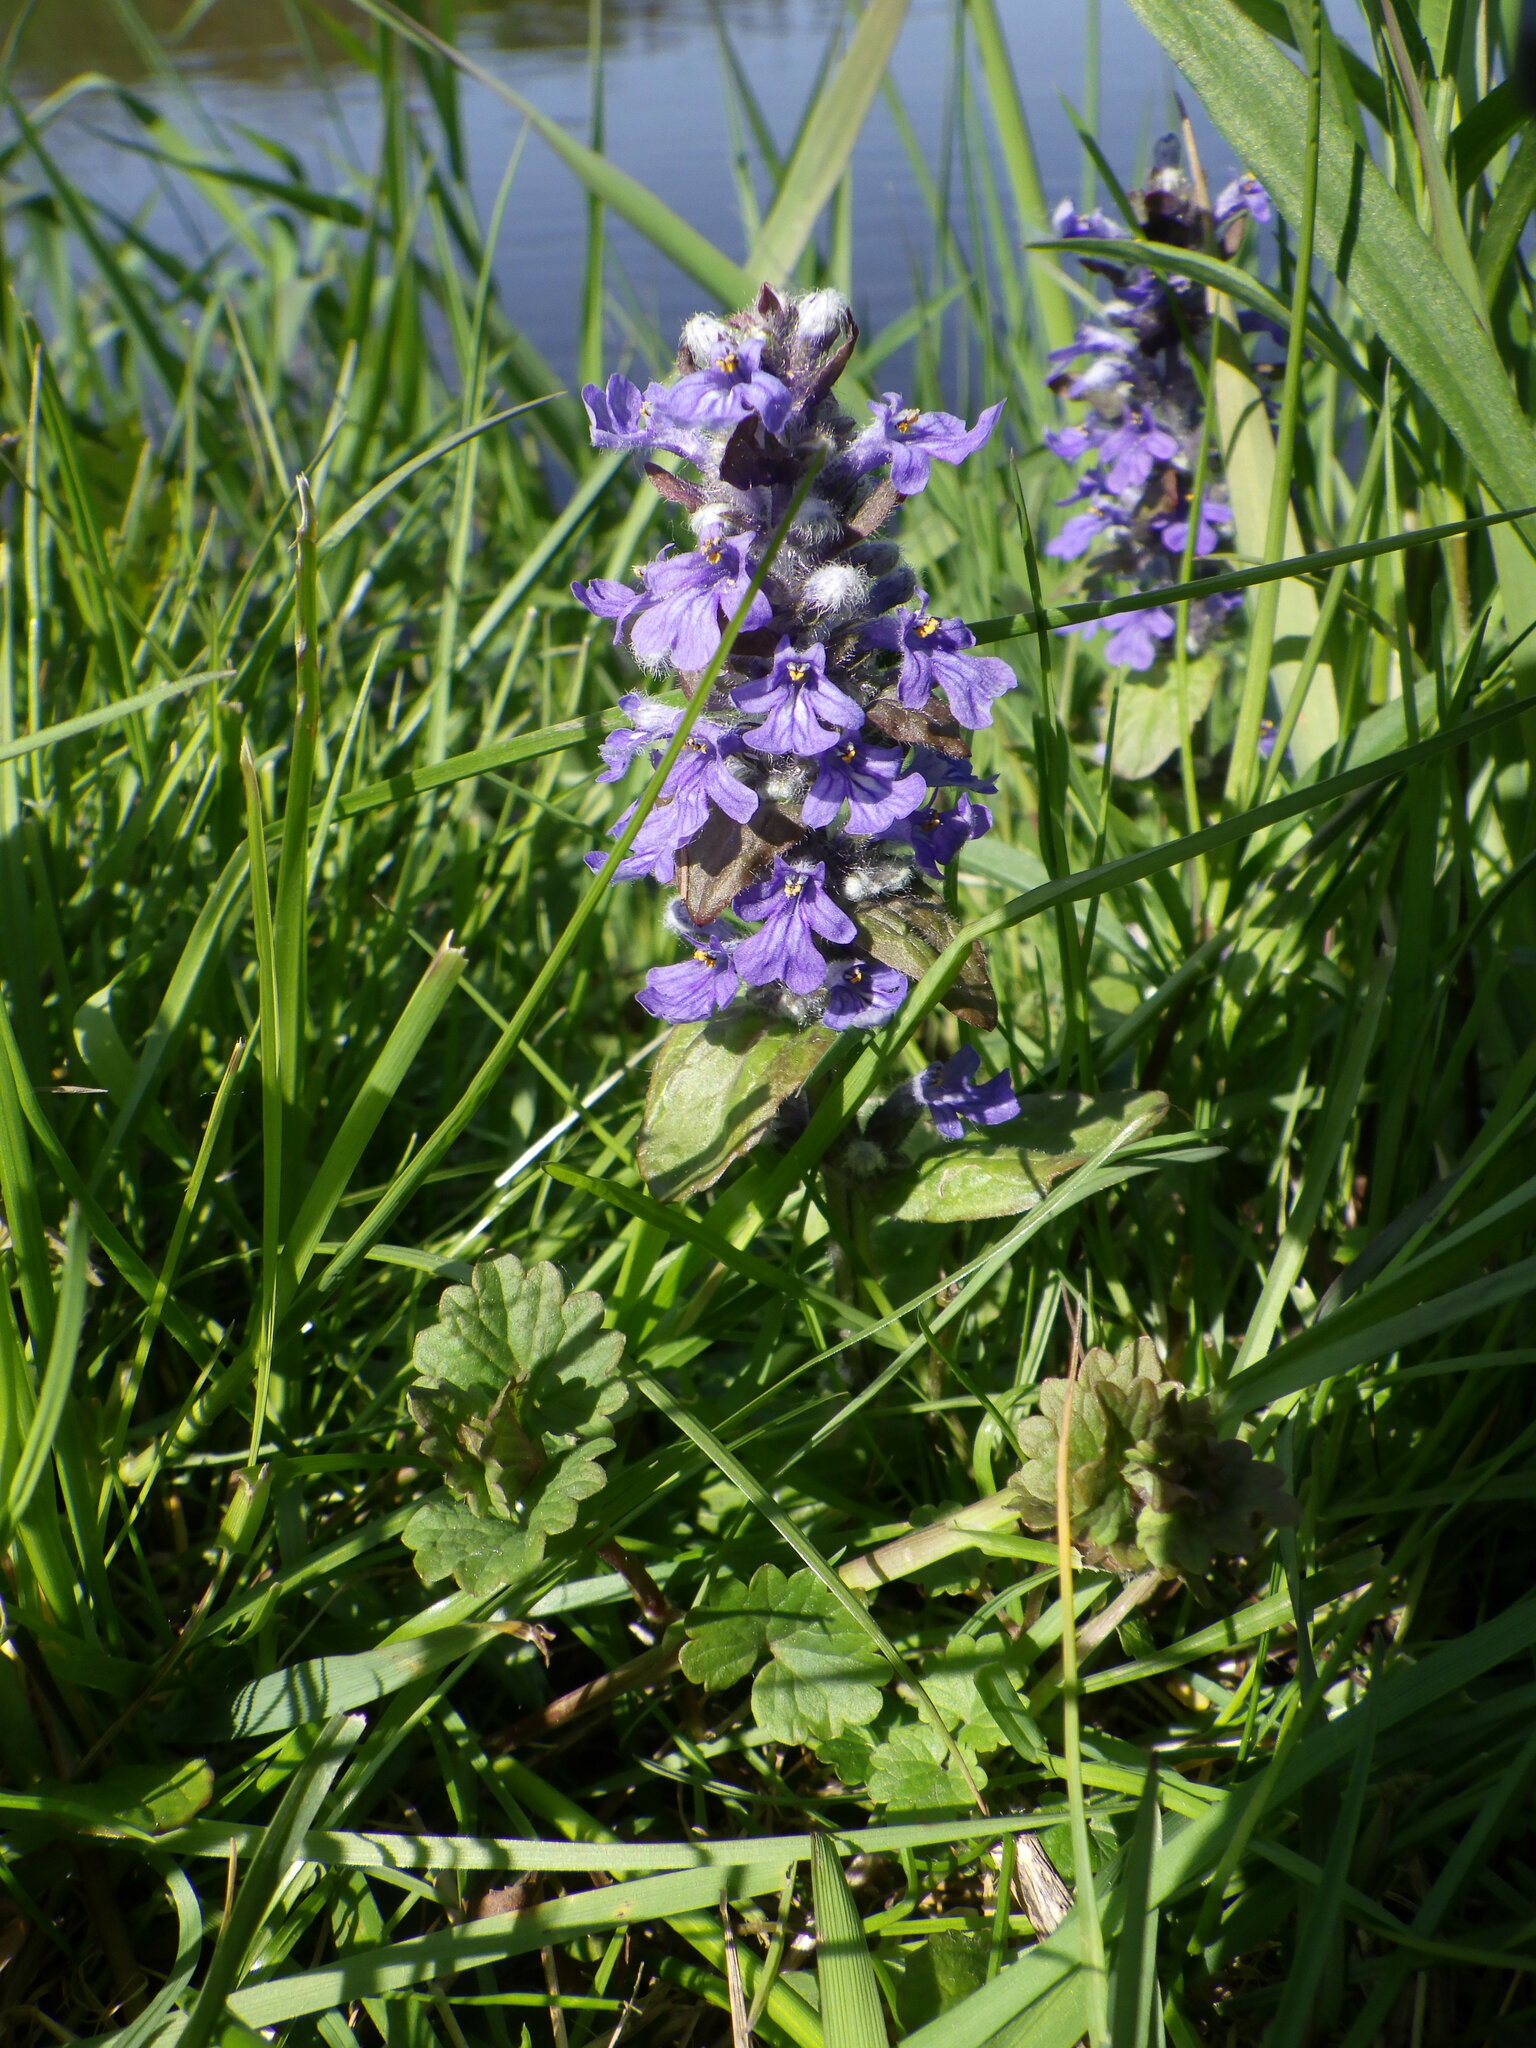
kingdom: Plantae
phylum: Tracheophyta
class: Magnoliopsida
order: Lamiales
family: Lamiaceae
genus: Ajuga
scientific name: Ajuga reptans
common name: Bugle
